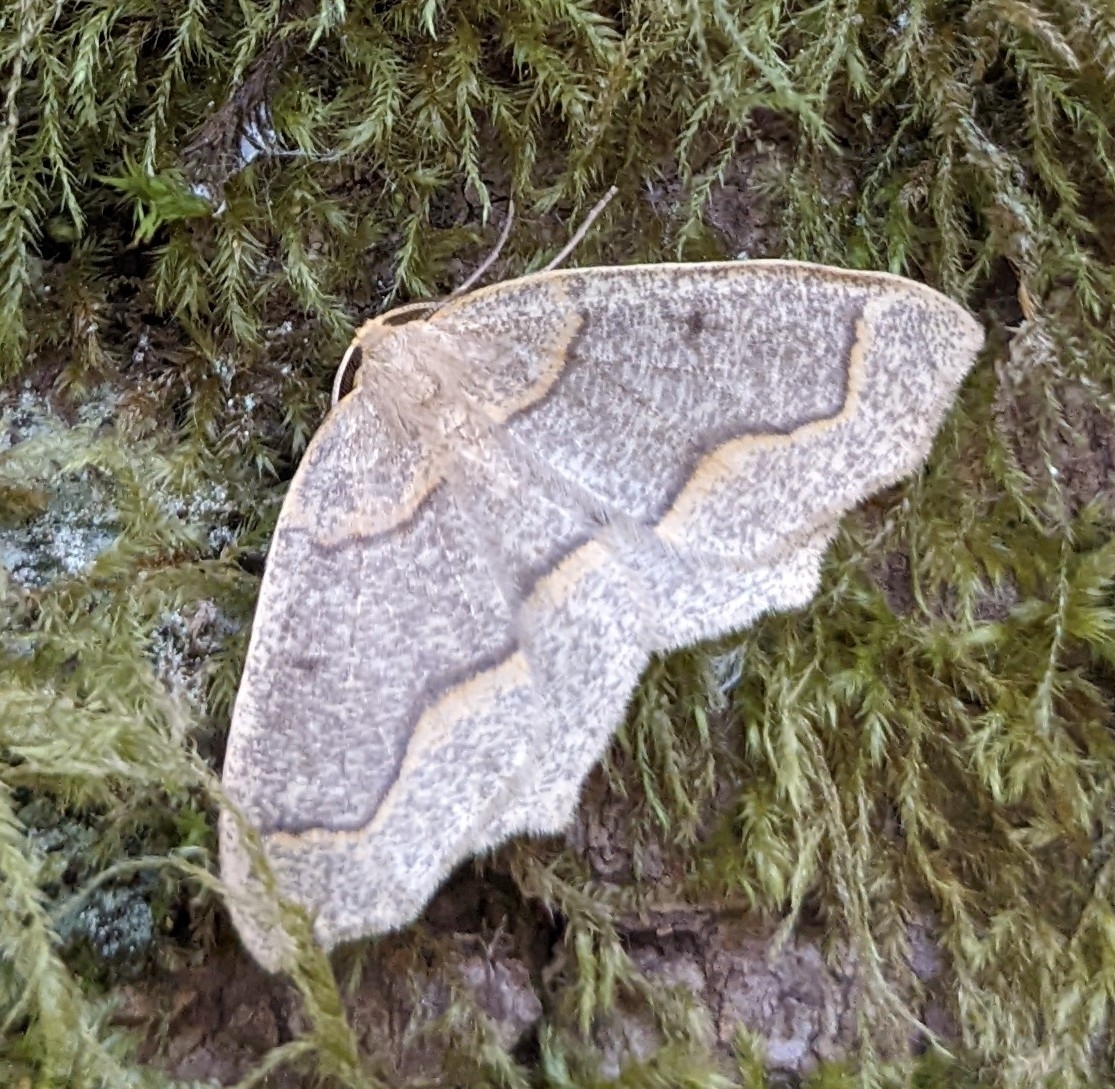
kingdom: Animalia
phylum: Arthropoda
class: Insecta
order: Lepidoptera
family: Geometridae
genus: Lambdina
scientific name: Lambdina fiscellaria
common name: Hemlock looper
